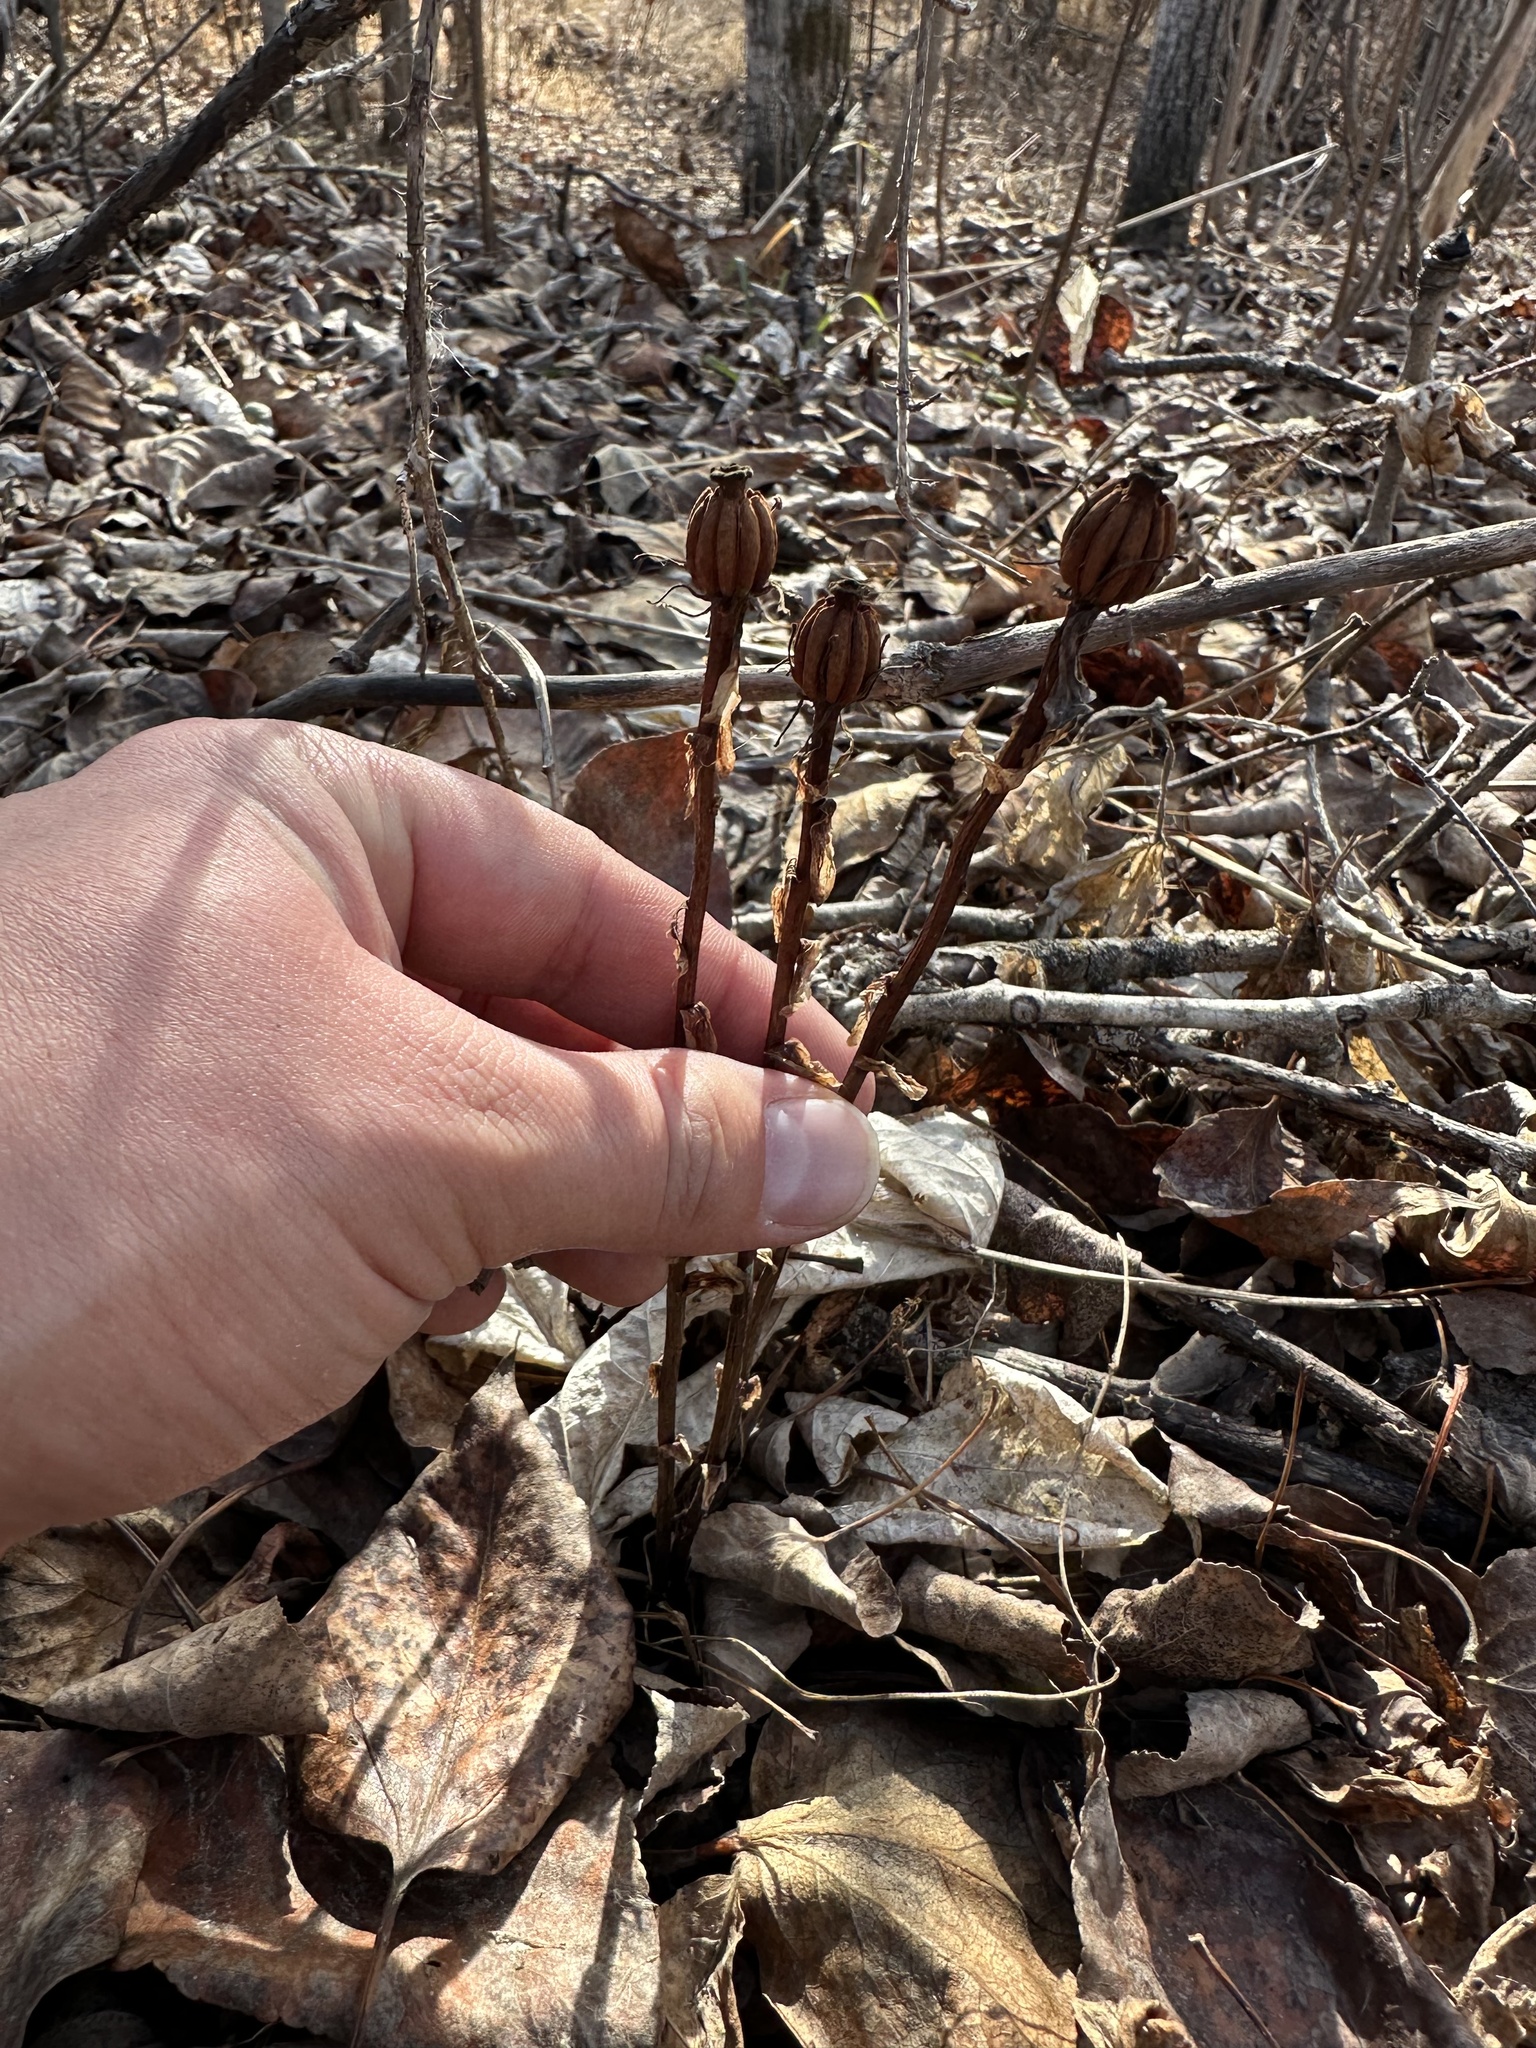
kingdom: Plantae
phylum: Tracheophyta
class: Magnoliopsida
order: Ericales
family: Ericaceae
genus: Monotropa
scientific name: Monotropa uniflora
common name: Convulsion root
